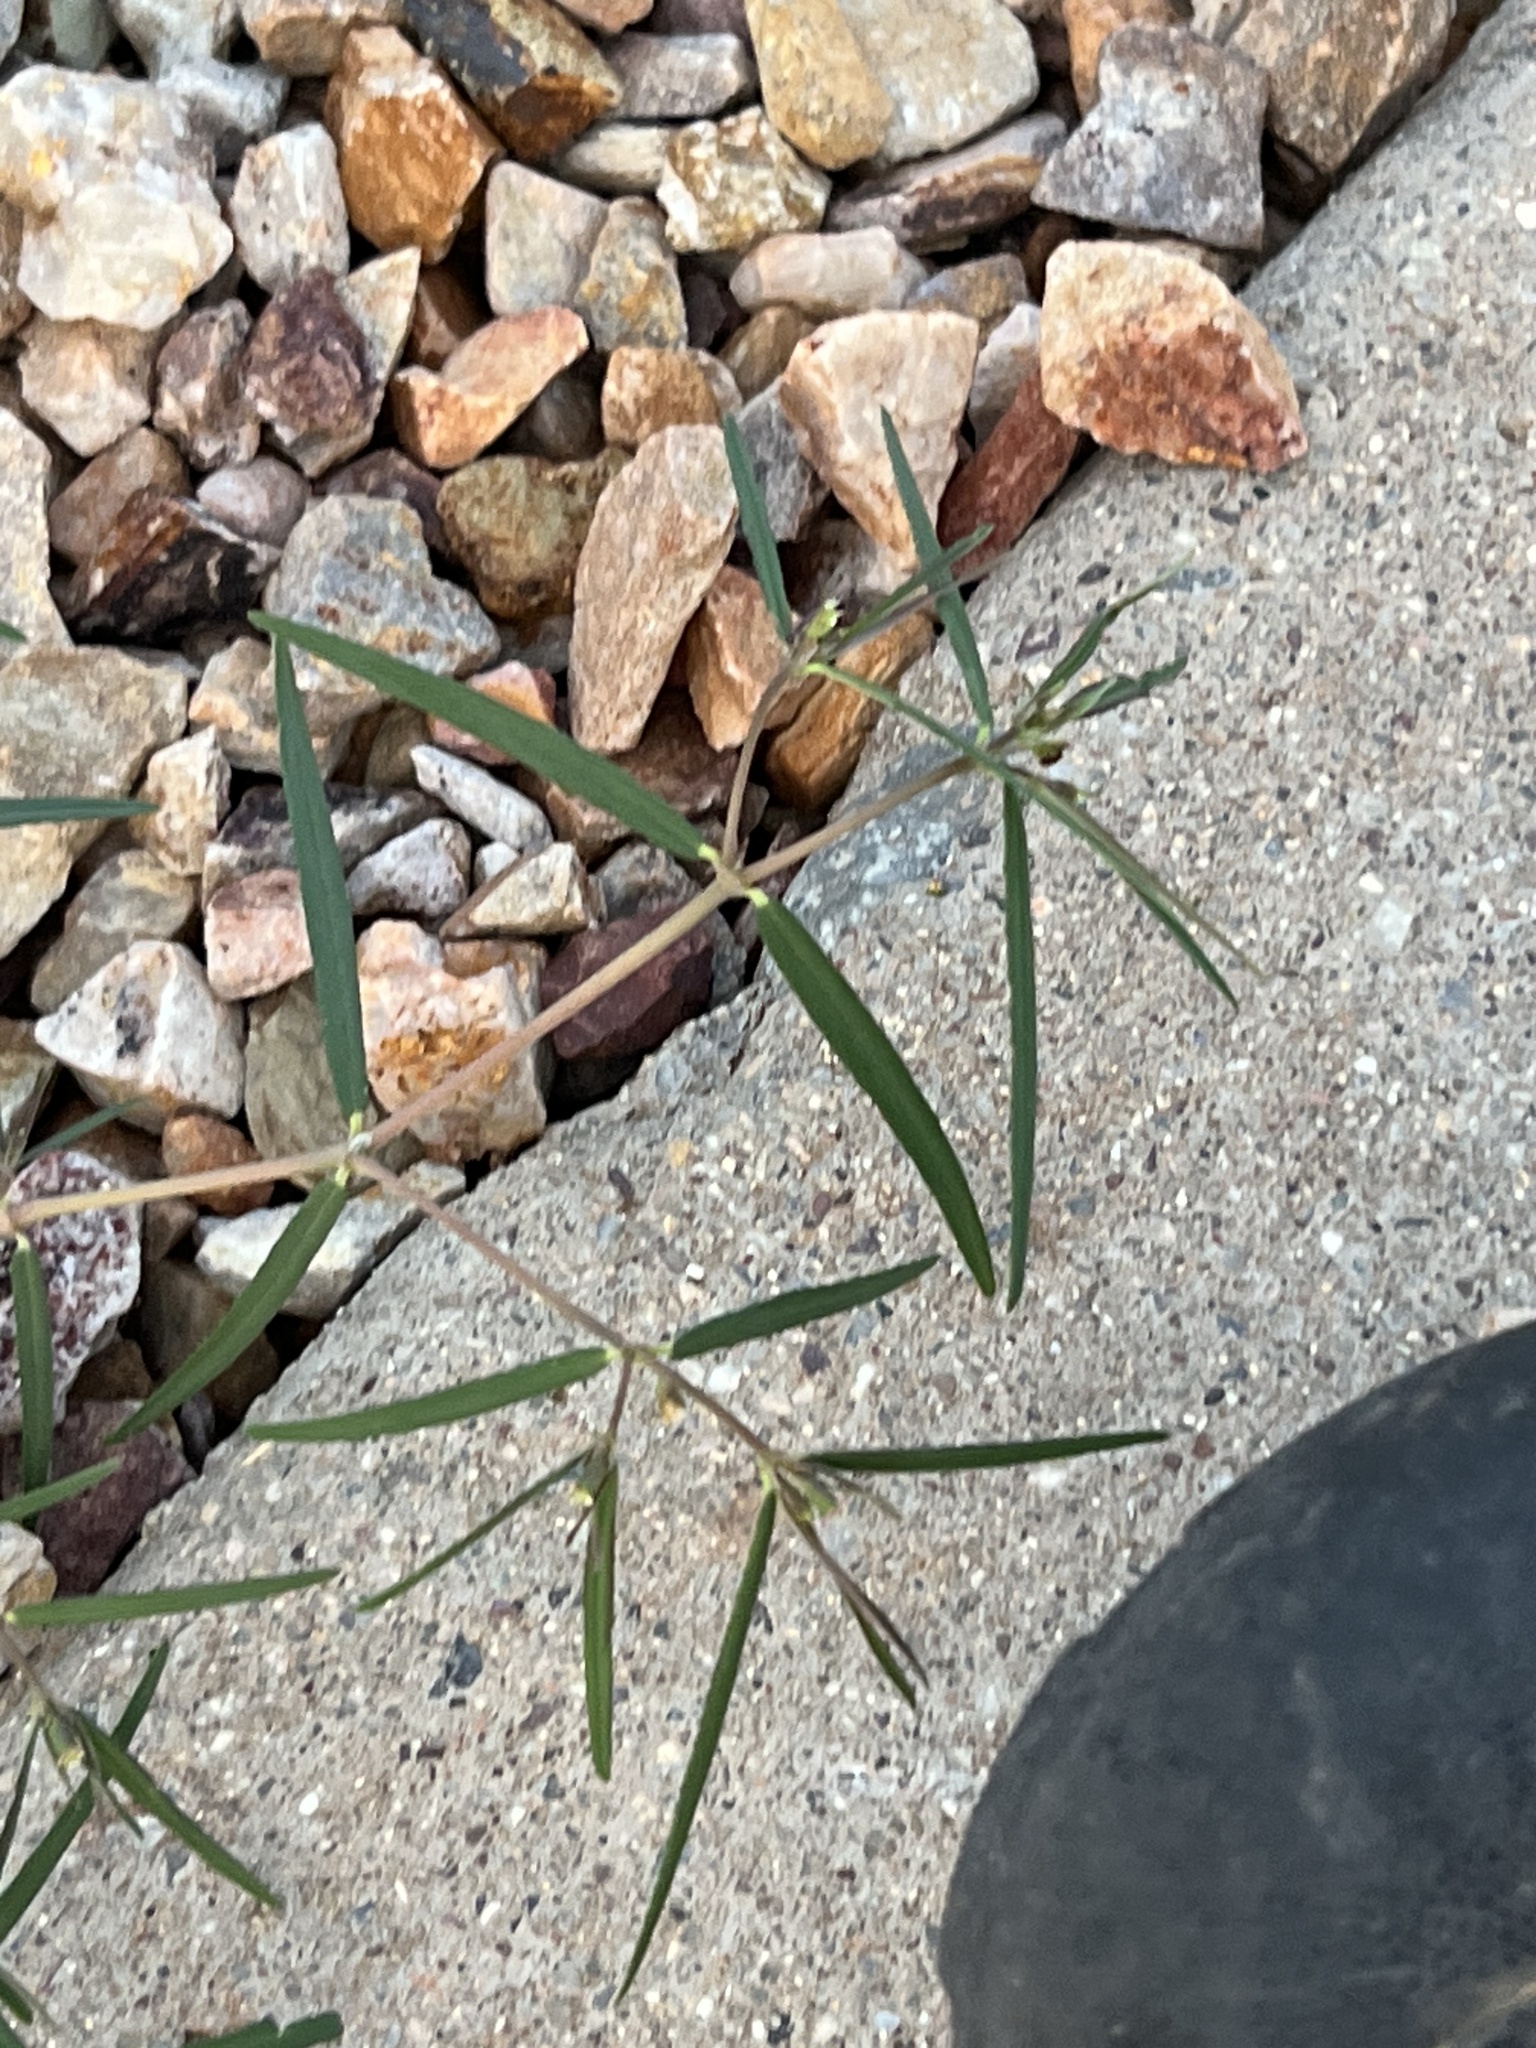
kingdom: Plantae
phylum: Tracheophyta
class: Magnoliopsida
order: Malpighiales
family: Euphorbiaceae
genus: Euphorbia
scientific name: Euphorbia florida
